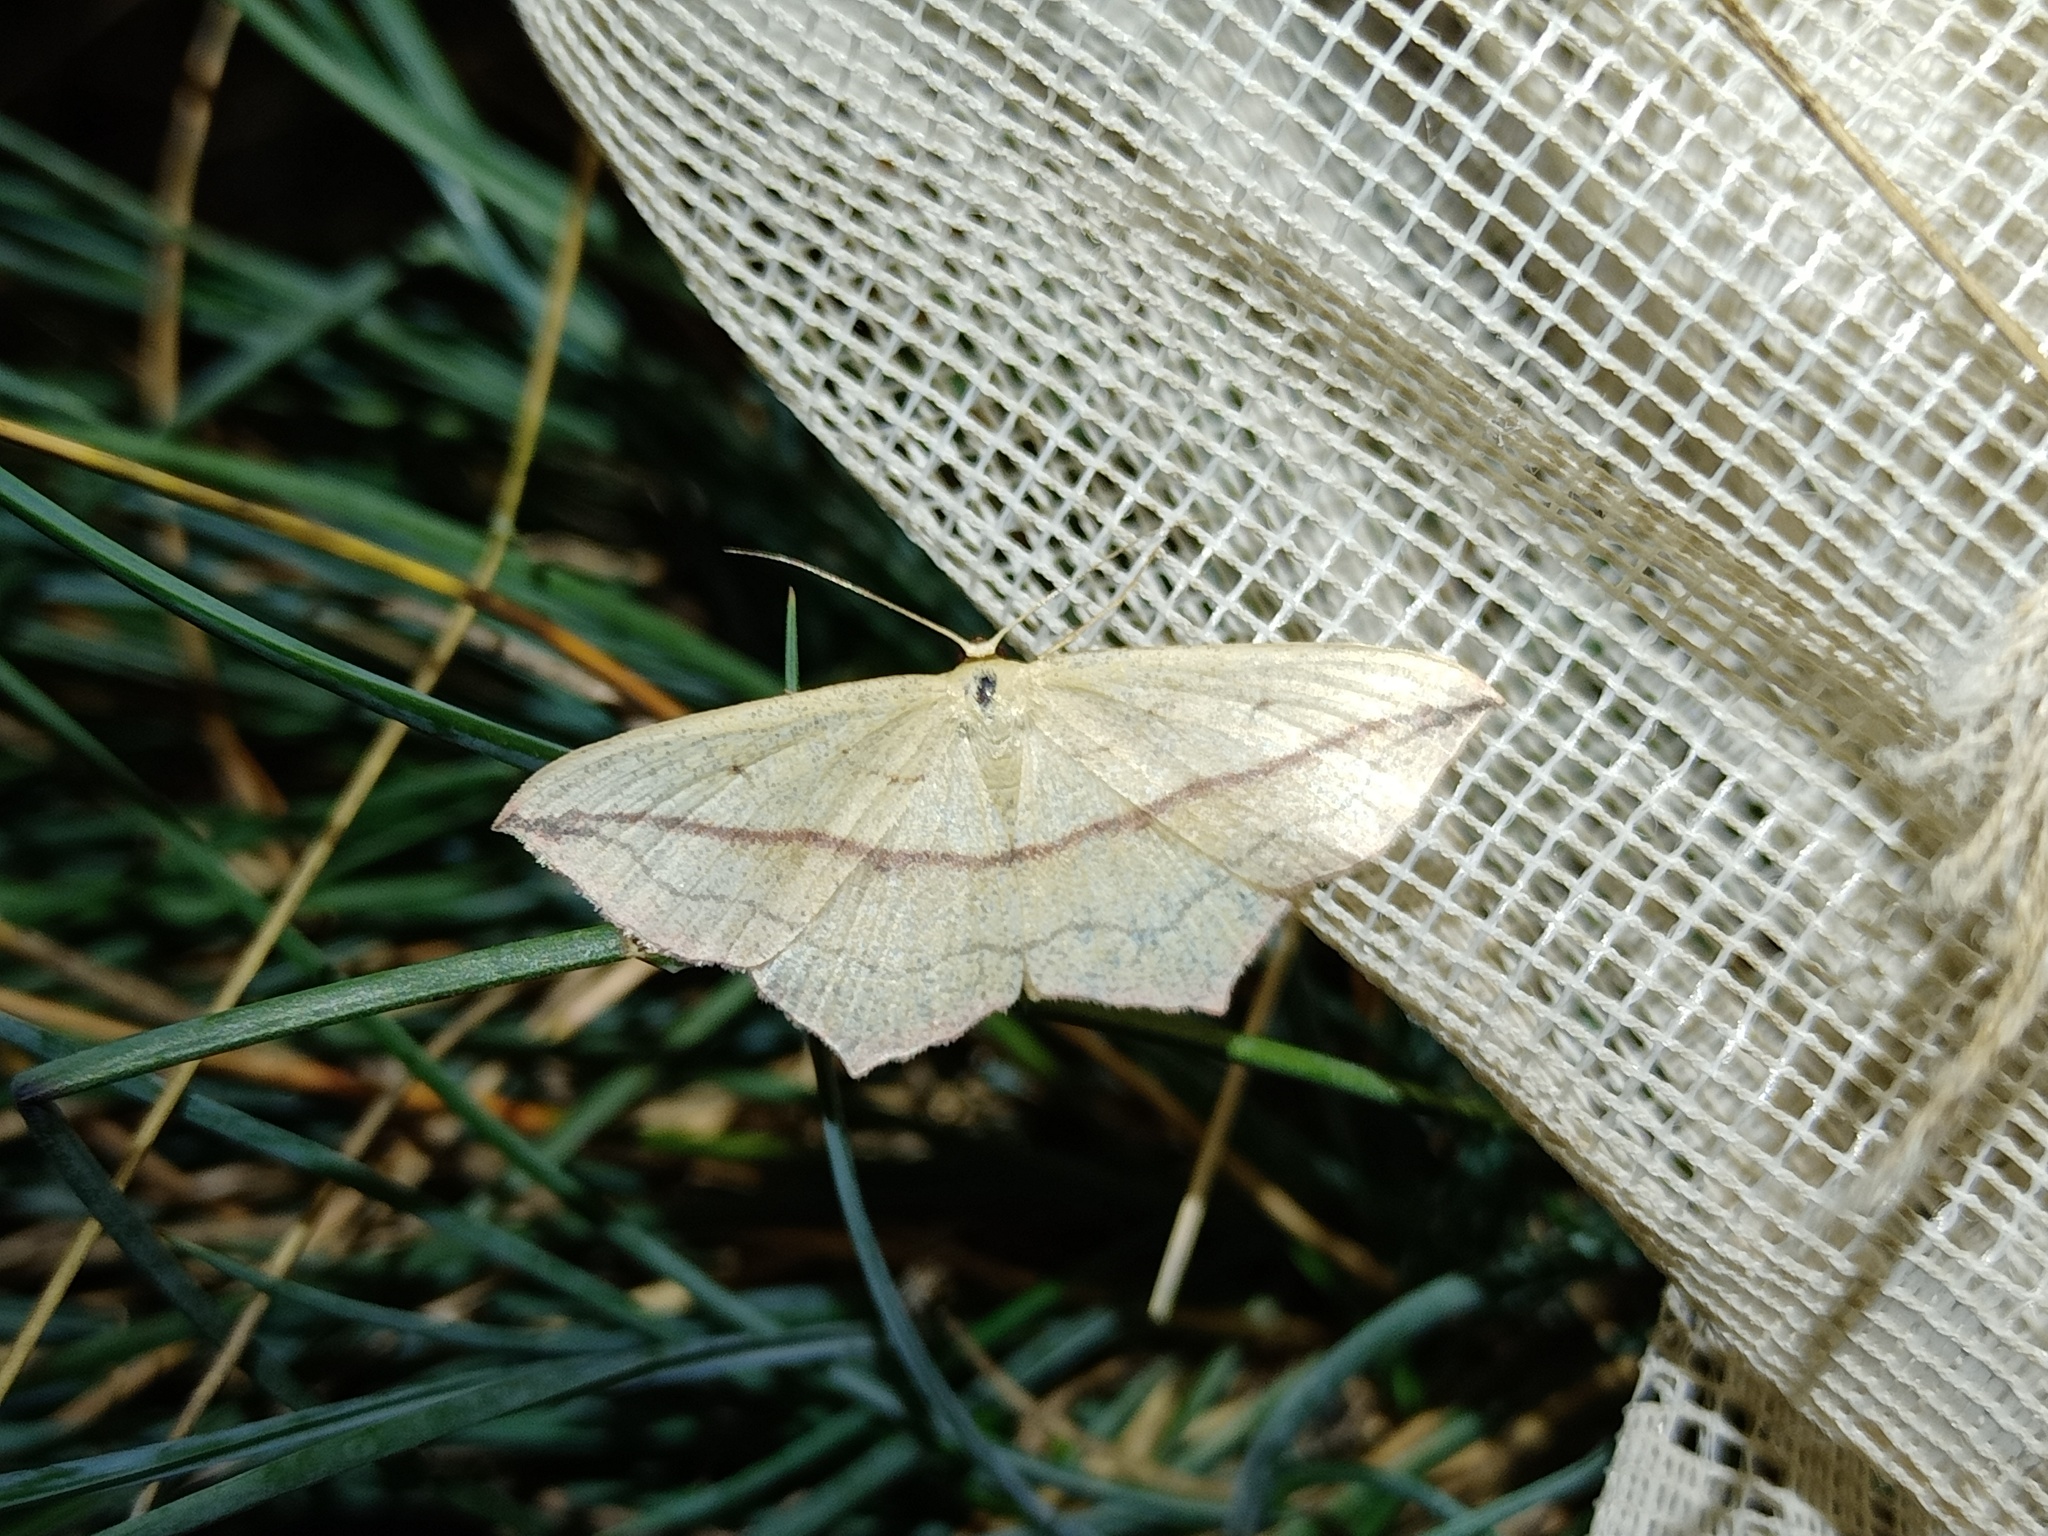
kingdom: Animalia
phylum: Arthropoda
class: Insecta
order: Lepidoptera
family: Geometridae
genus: Timandra
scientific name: Timandra comae
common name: Blood-vein
